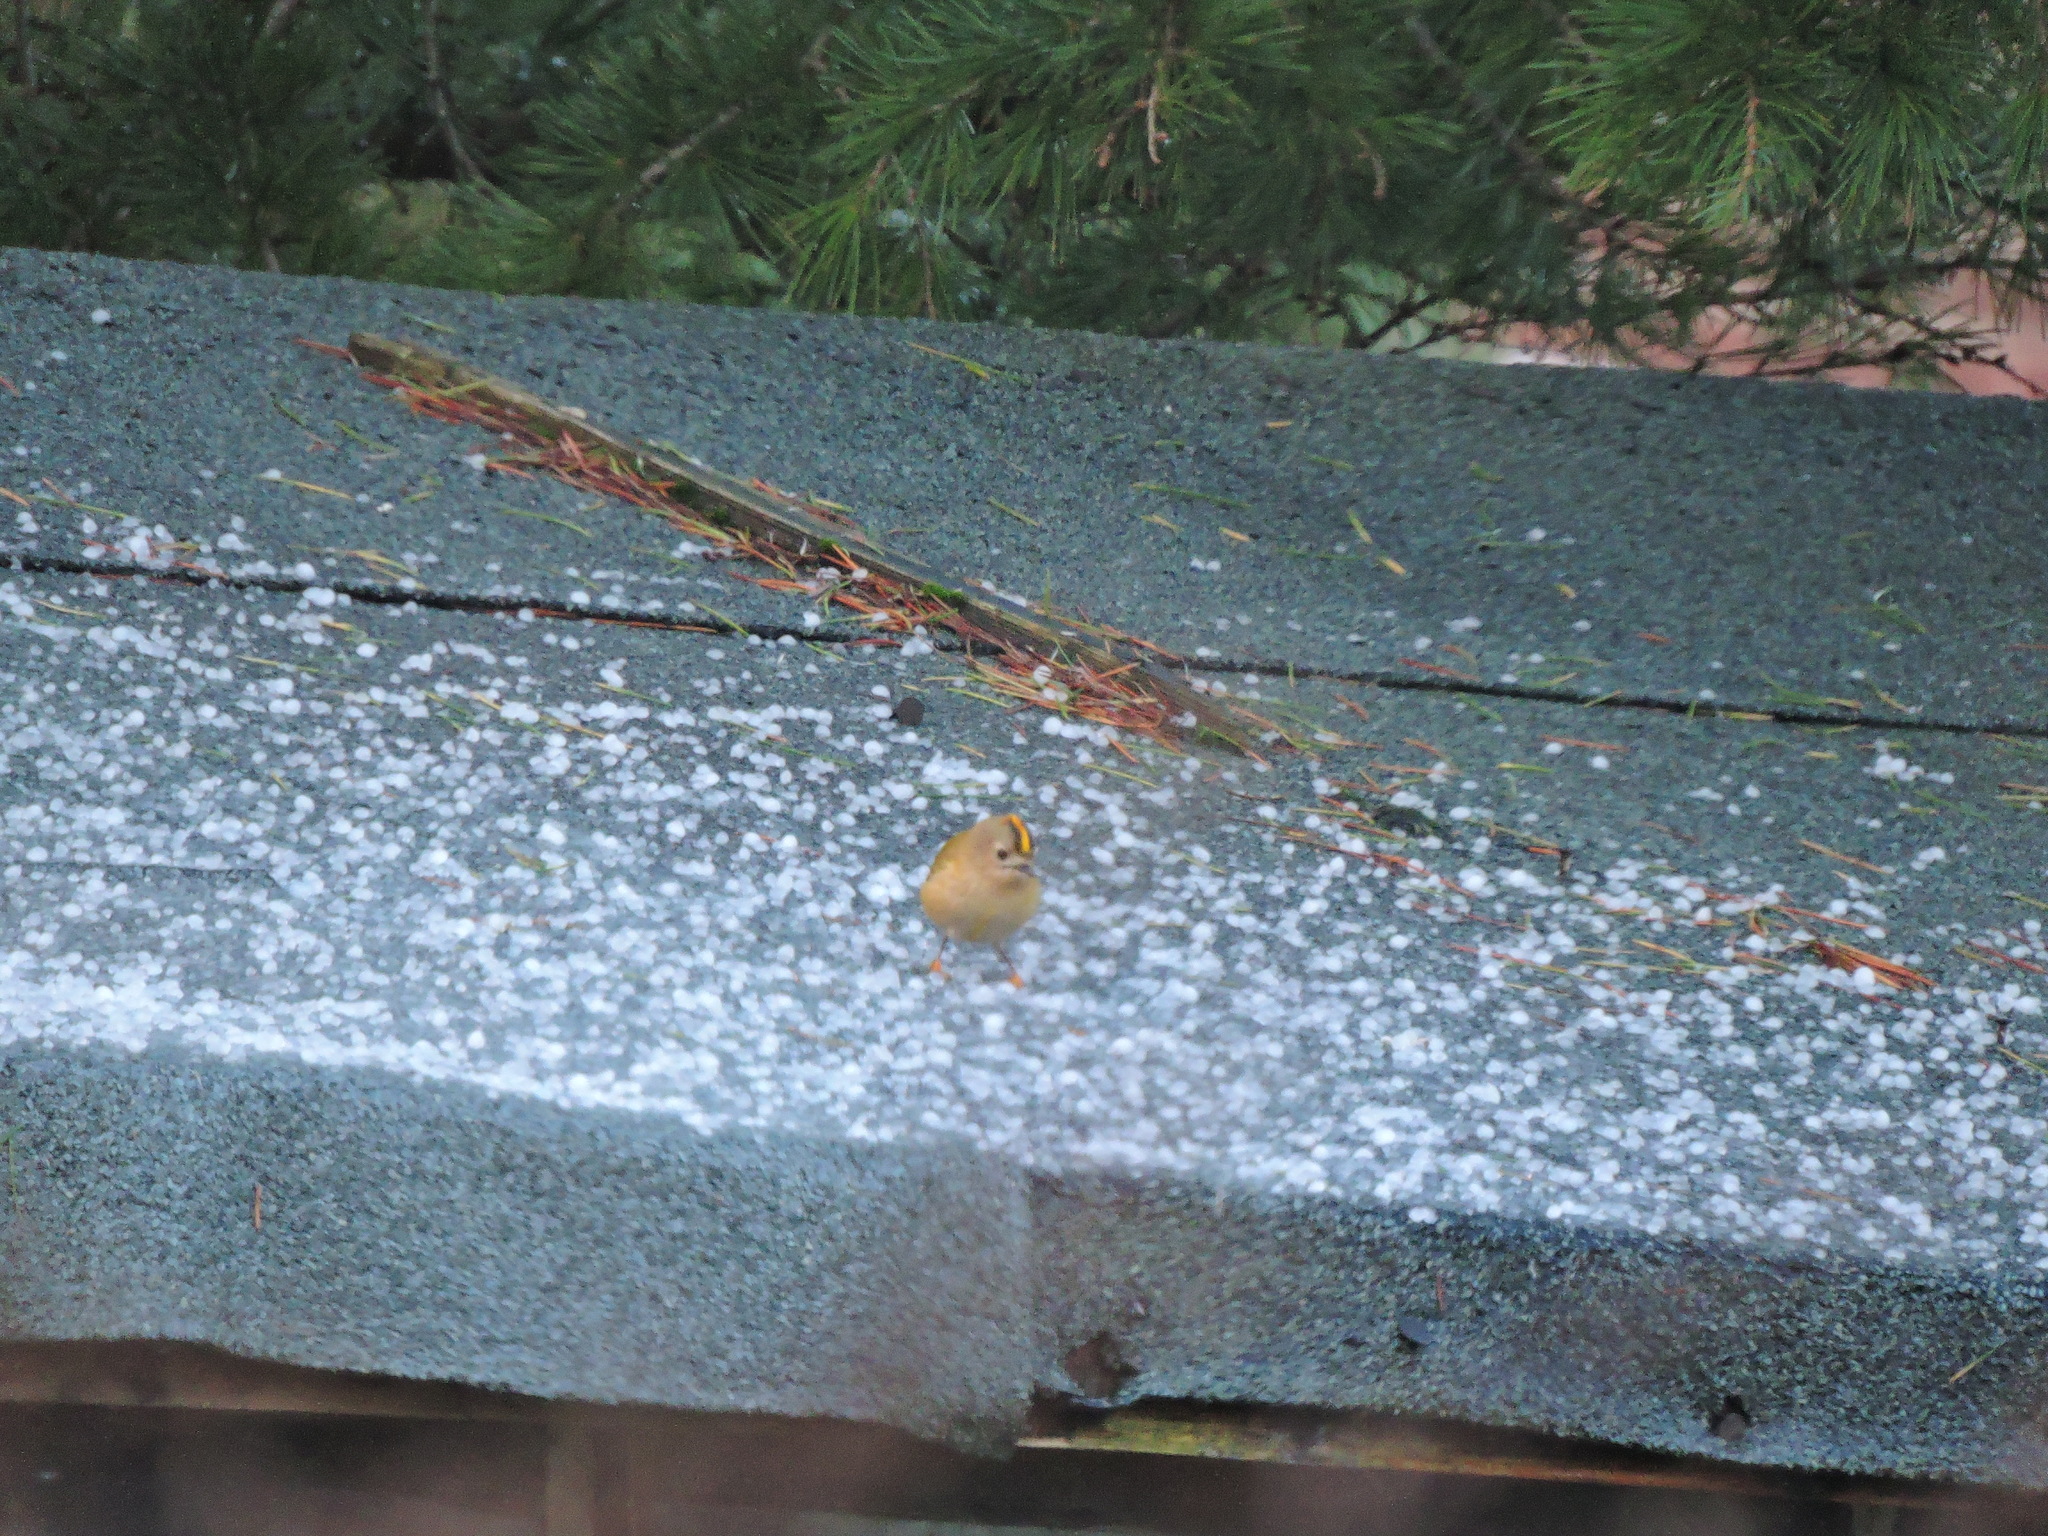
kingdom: Animalia
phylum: Chordata
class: Aves
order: Passeriformes
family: Regulidae
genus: Regulus
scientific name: Regulus regulus
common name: Goldcrest
